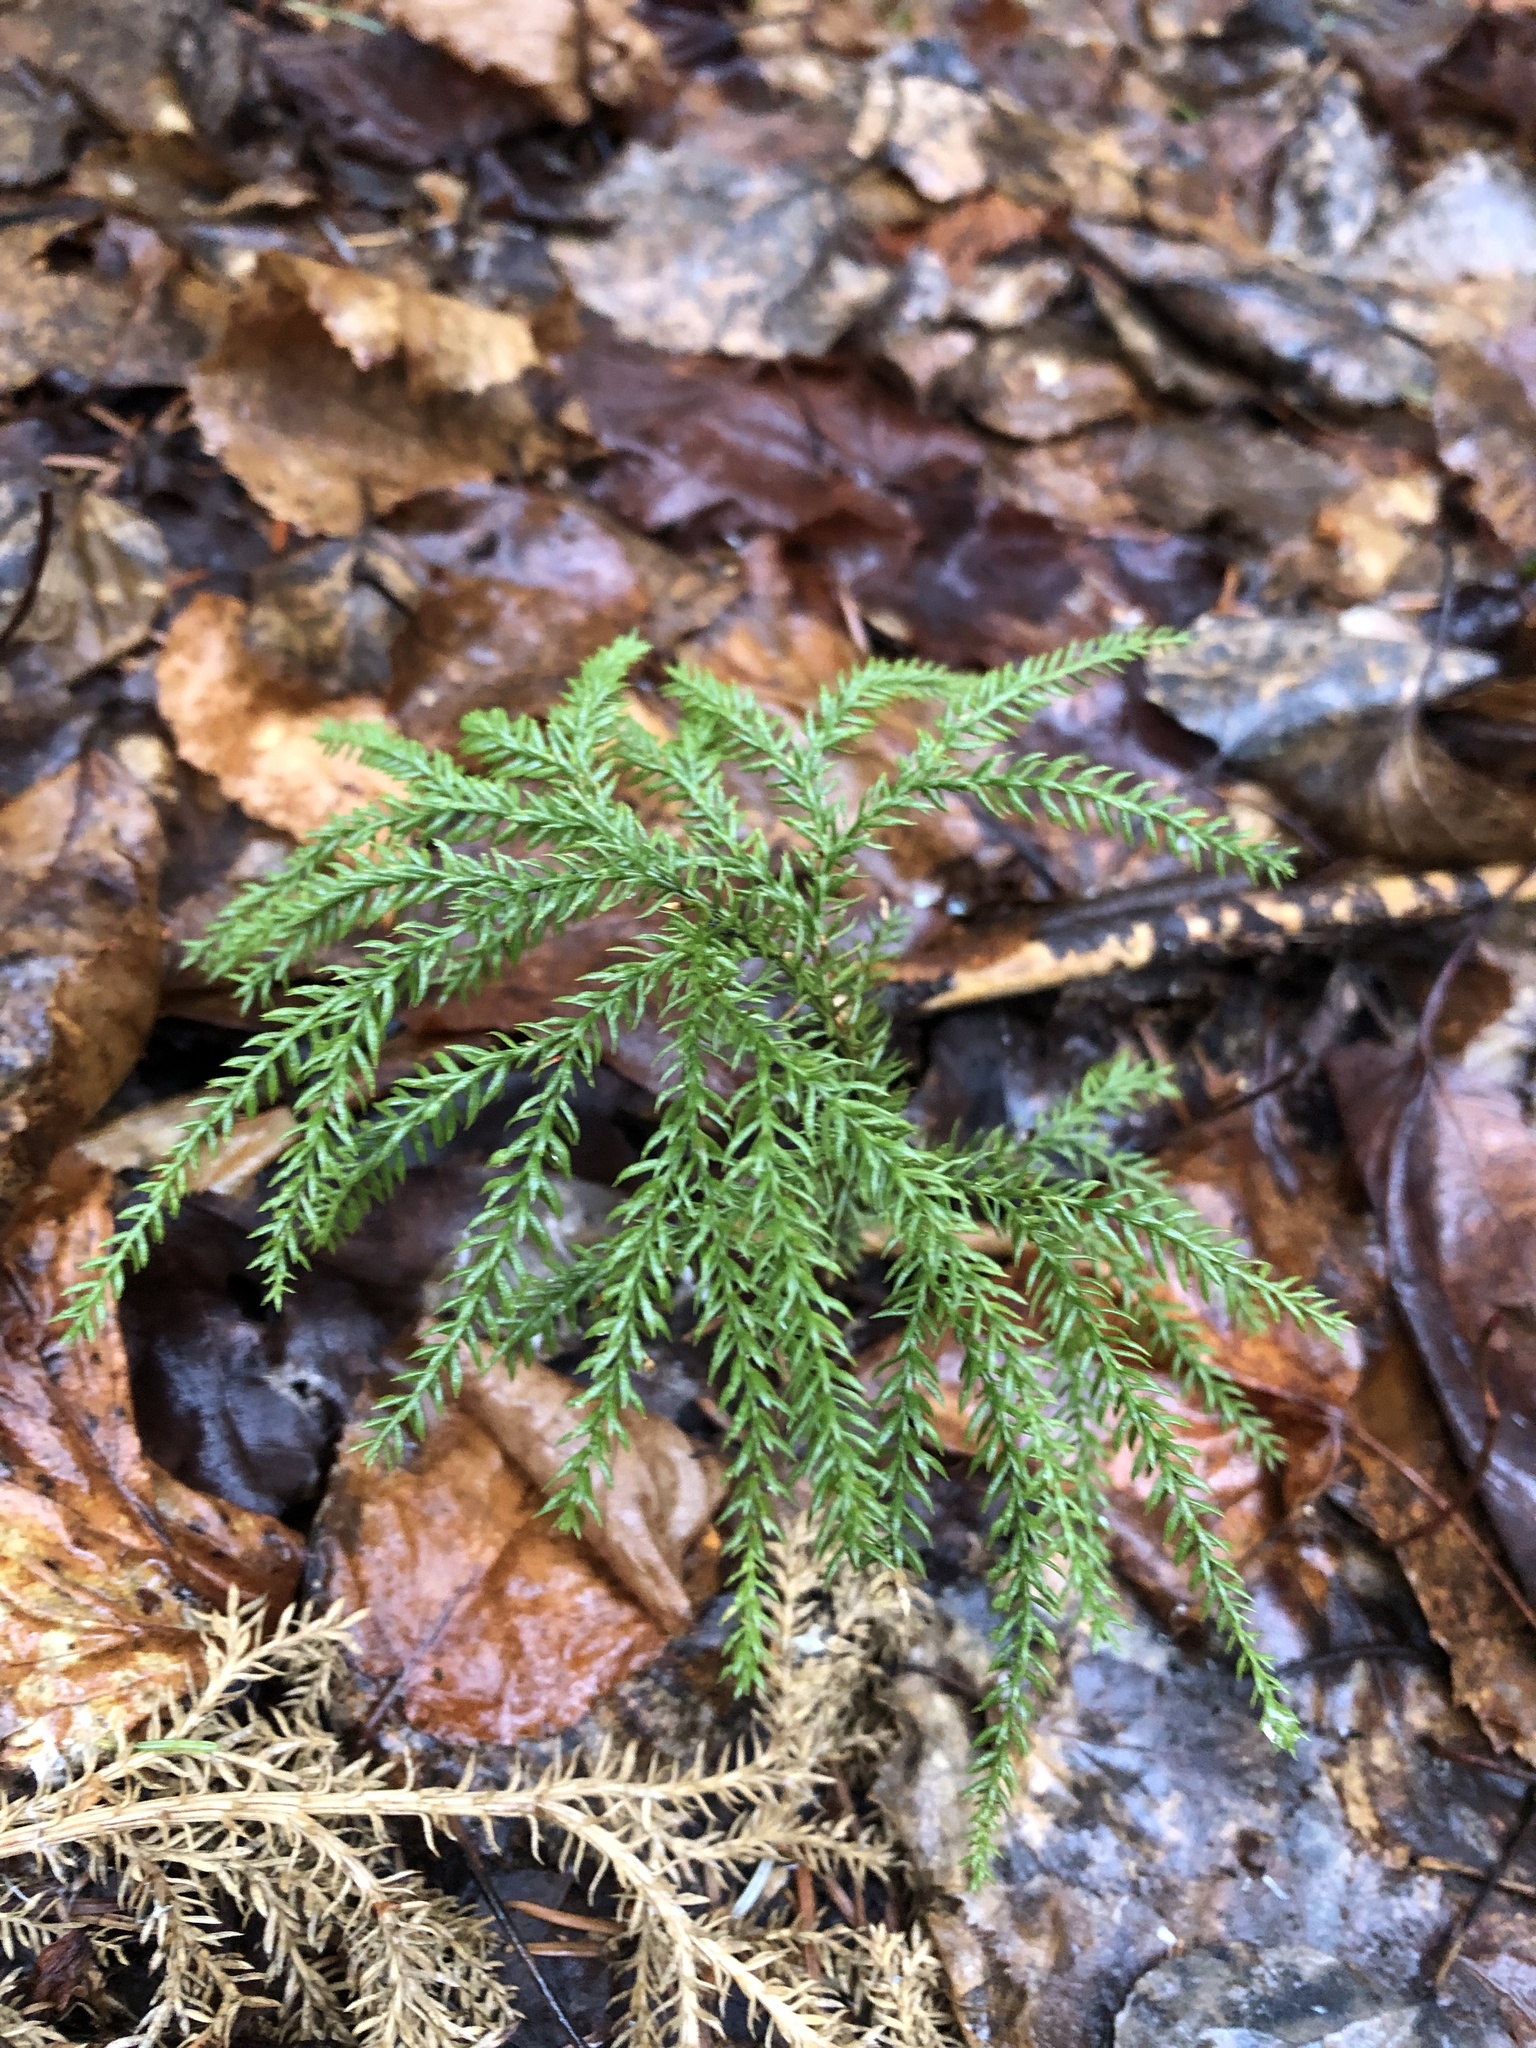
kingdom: Plantae
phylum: Tracheophyta
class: Lycopodiopsida
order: Lycopodiales
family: Lycopodiaceae
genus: Dendrolycopodium
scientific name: Dendrolycopodium dendroideum
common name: Northern tree-clubmoss
